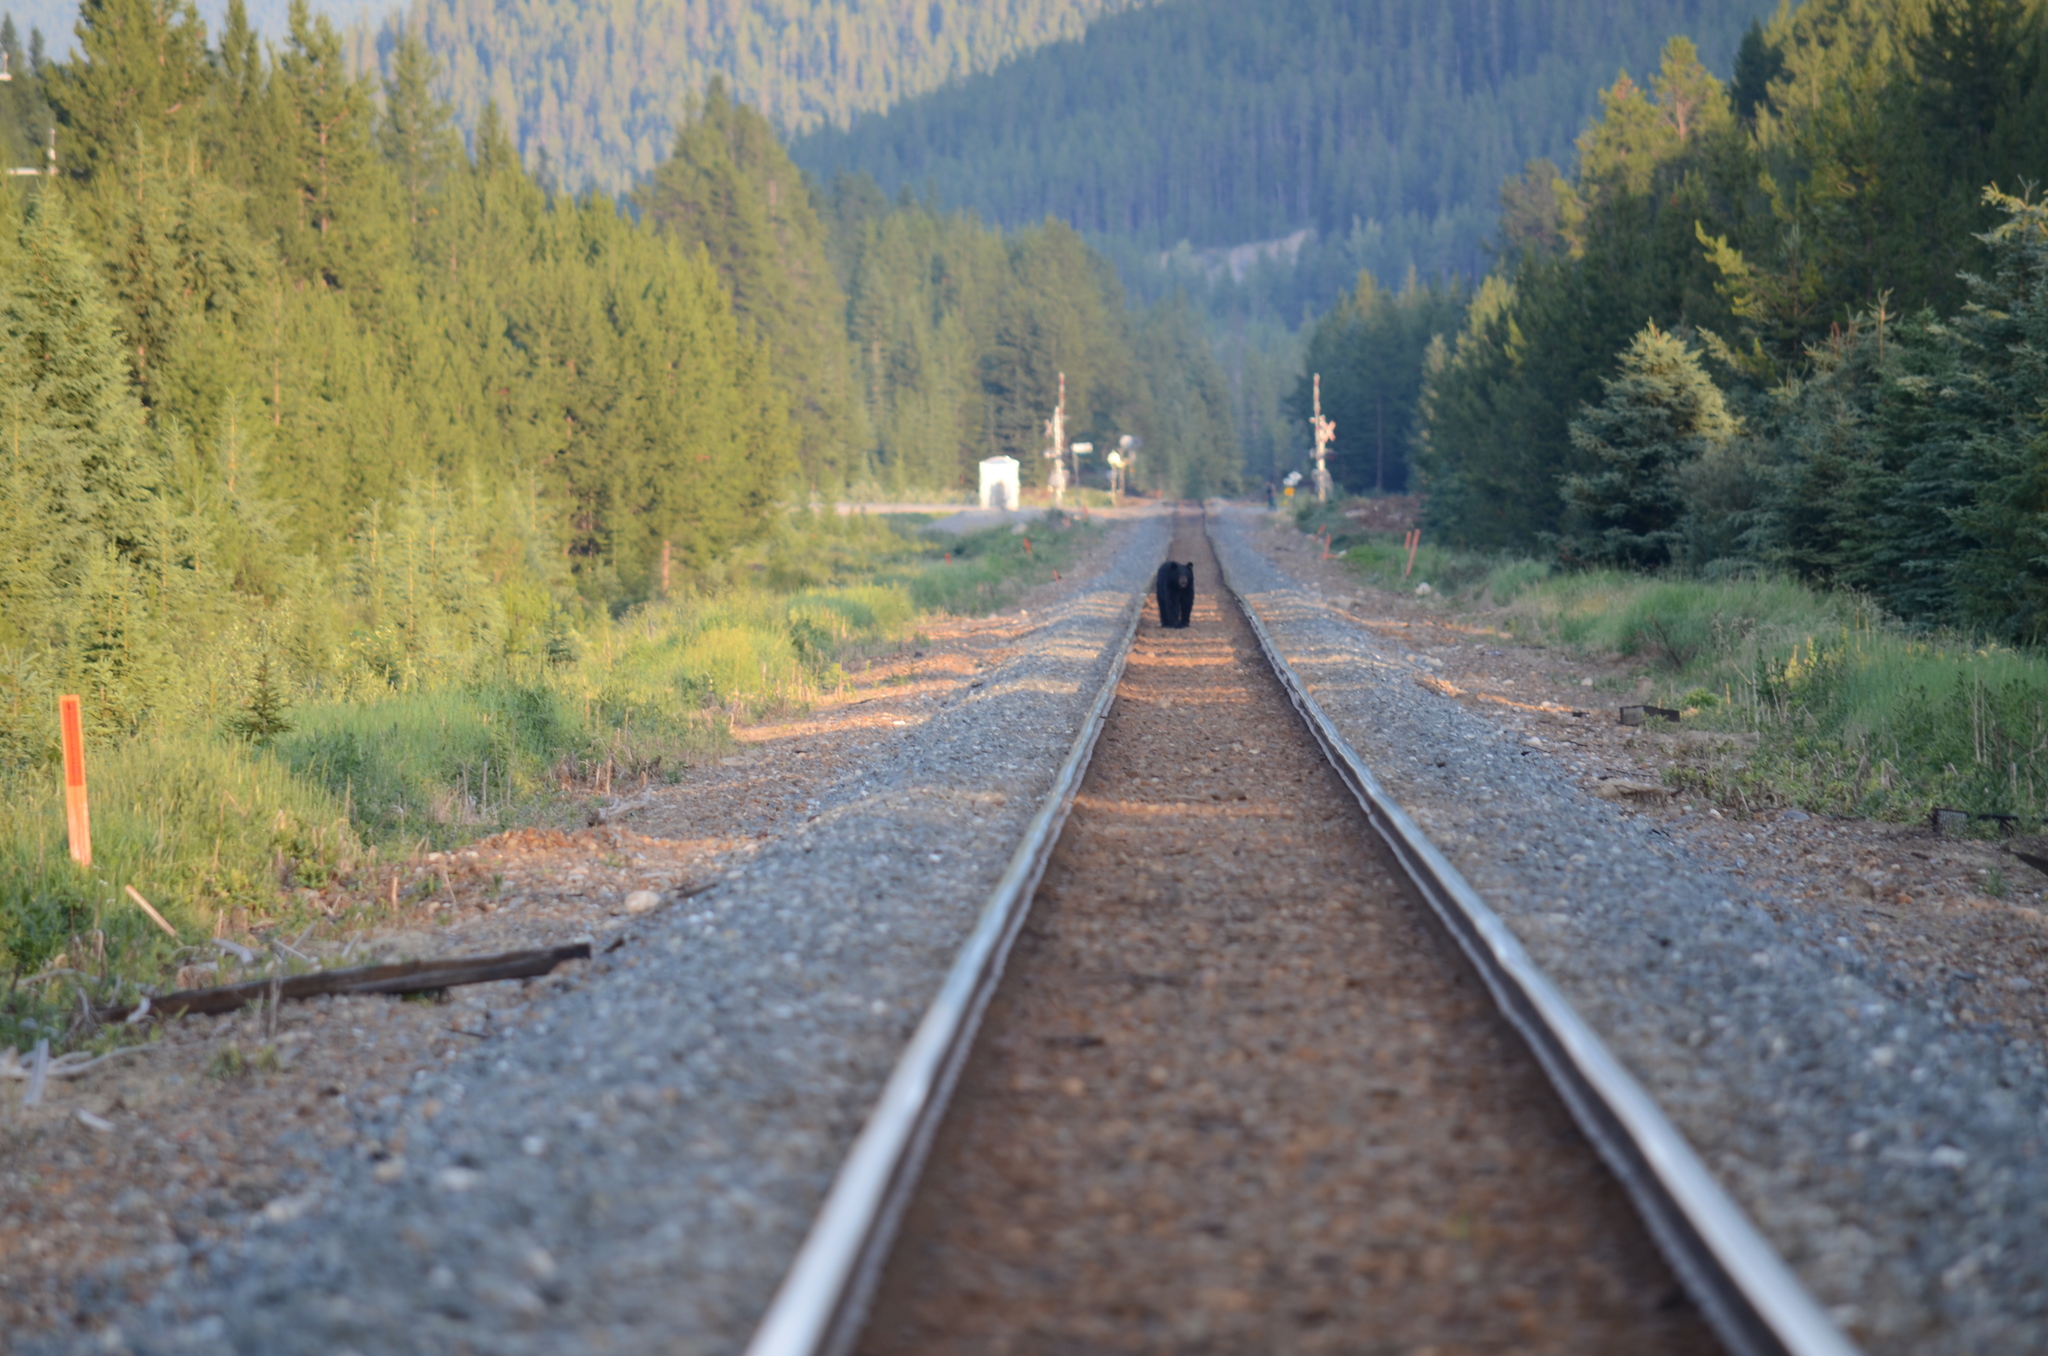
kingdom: Animalia
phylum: Chordata
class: Mammalia
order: Carnivora
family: Ursidae
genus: Ursus
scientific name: Ursus americanus
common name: American black bear
